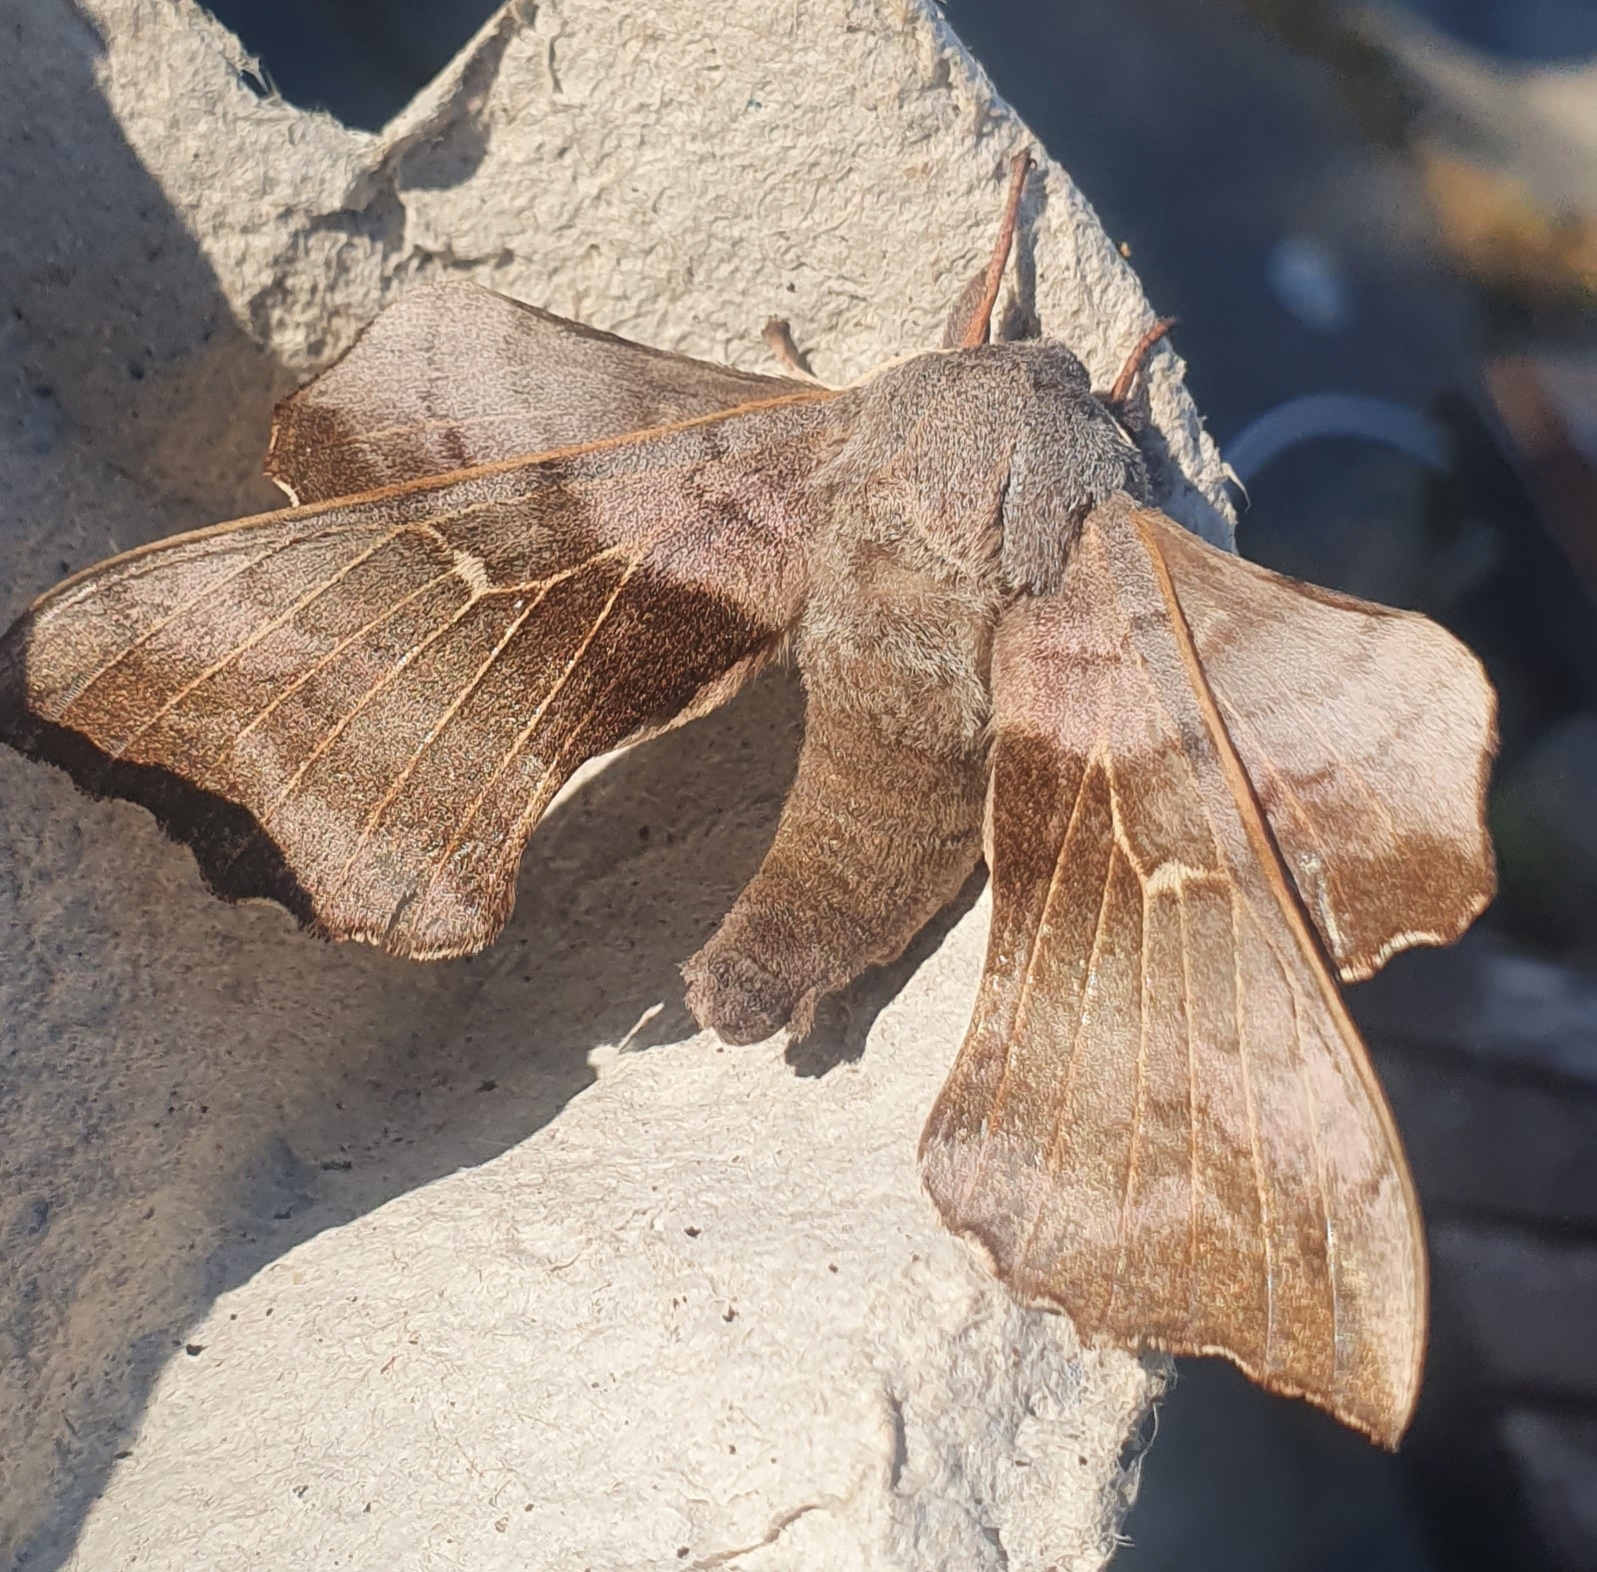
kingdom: Animalia
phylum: Arthropoda
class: Insecta
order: Lepidoptera
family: Sphingidae
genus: Laothoe
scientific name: Laothoe populi
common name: Poplar hawk-moth
